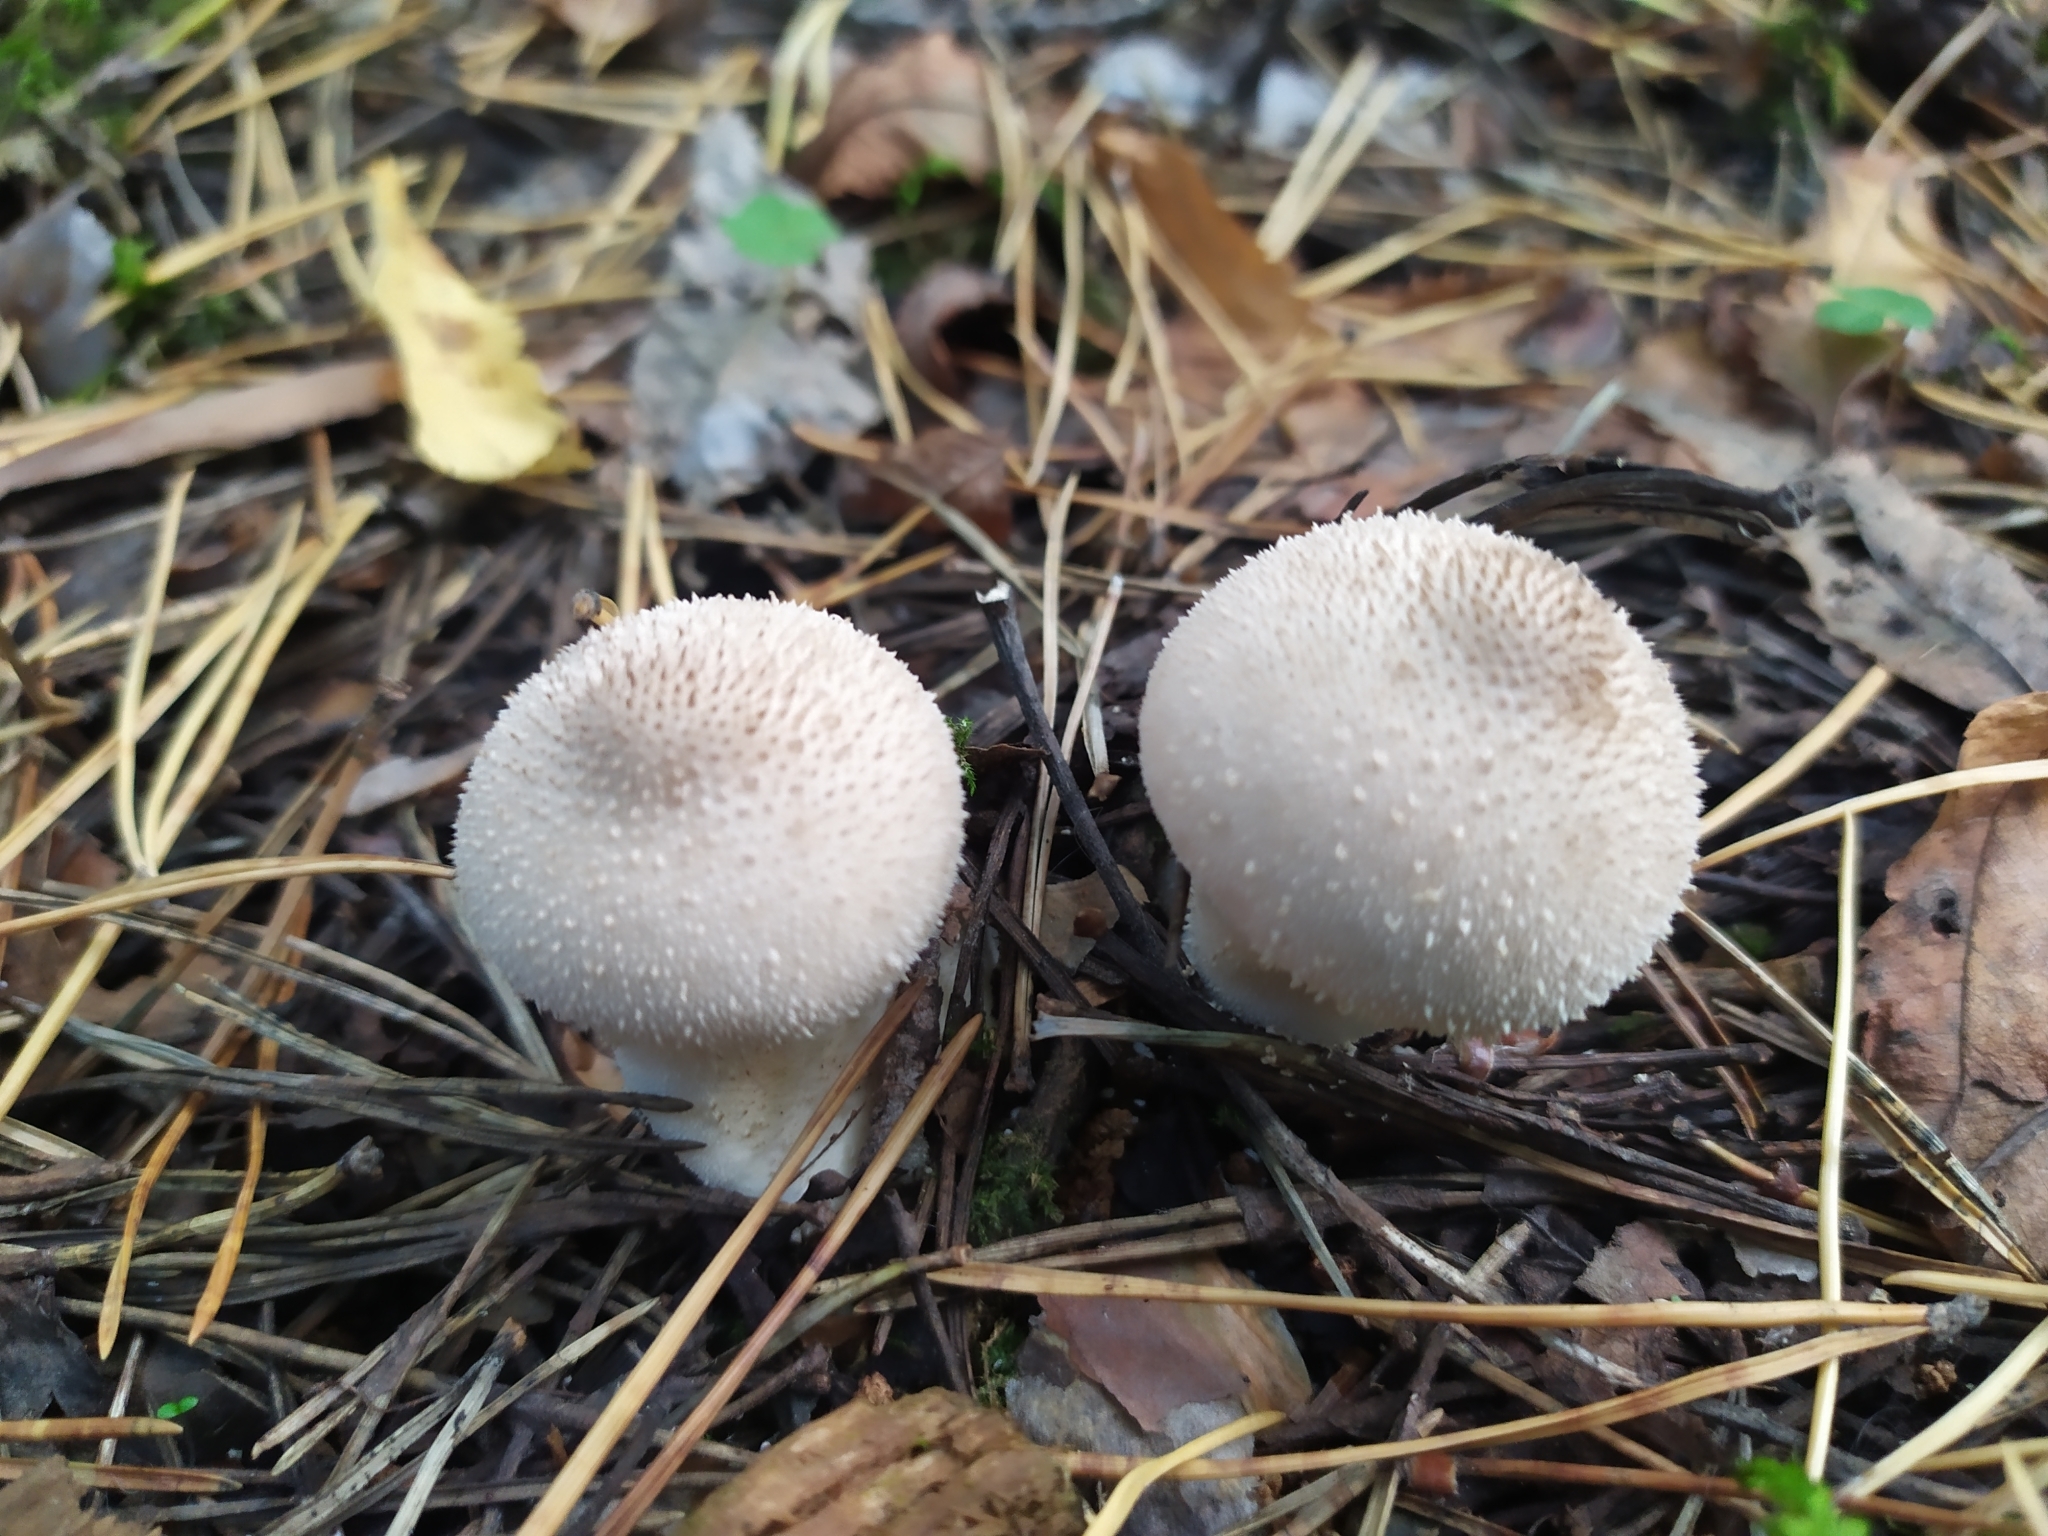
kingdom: Fungi
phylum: Basidiomycota
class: Agaricomycetes
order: Agaricales
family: Lycoperdaceae
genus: Lycoperdon
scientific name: Lycoperdon perlatum
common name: Common puffball
